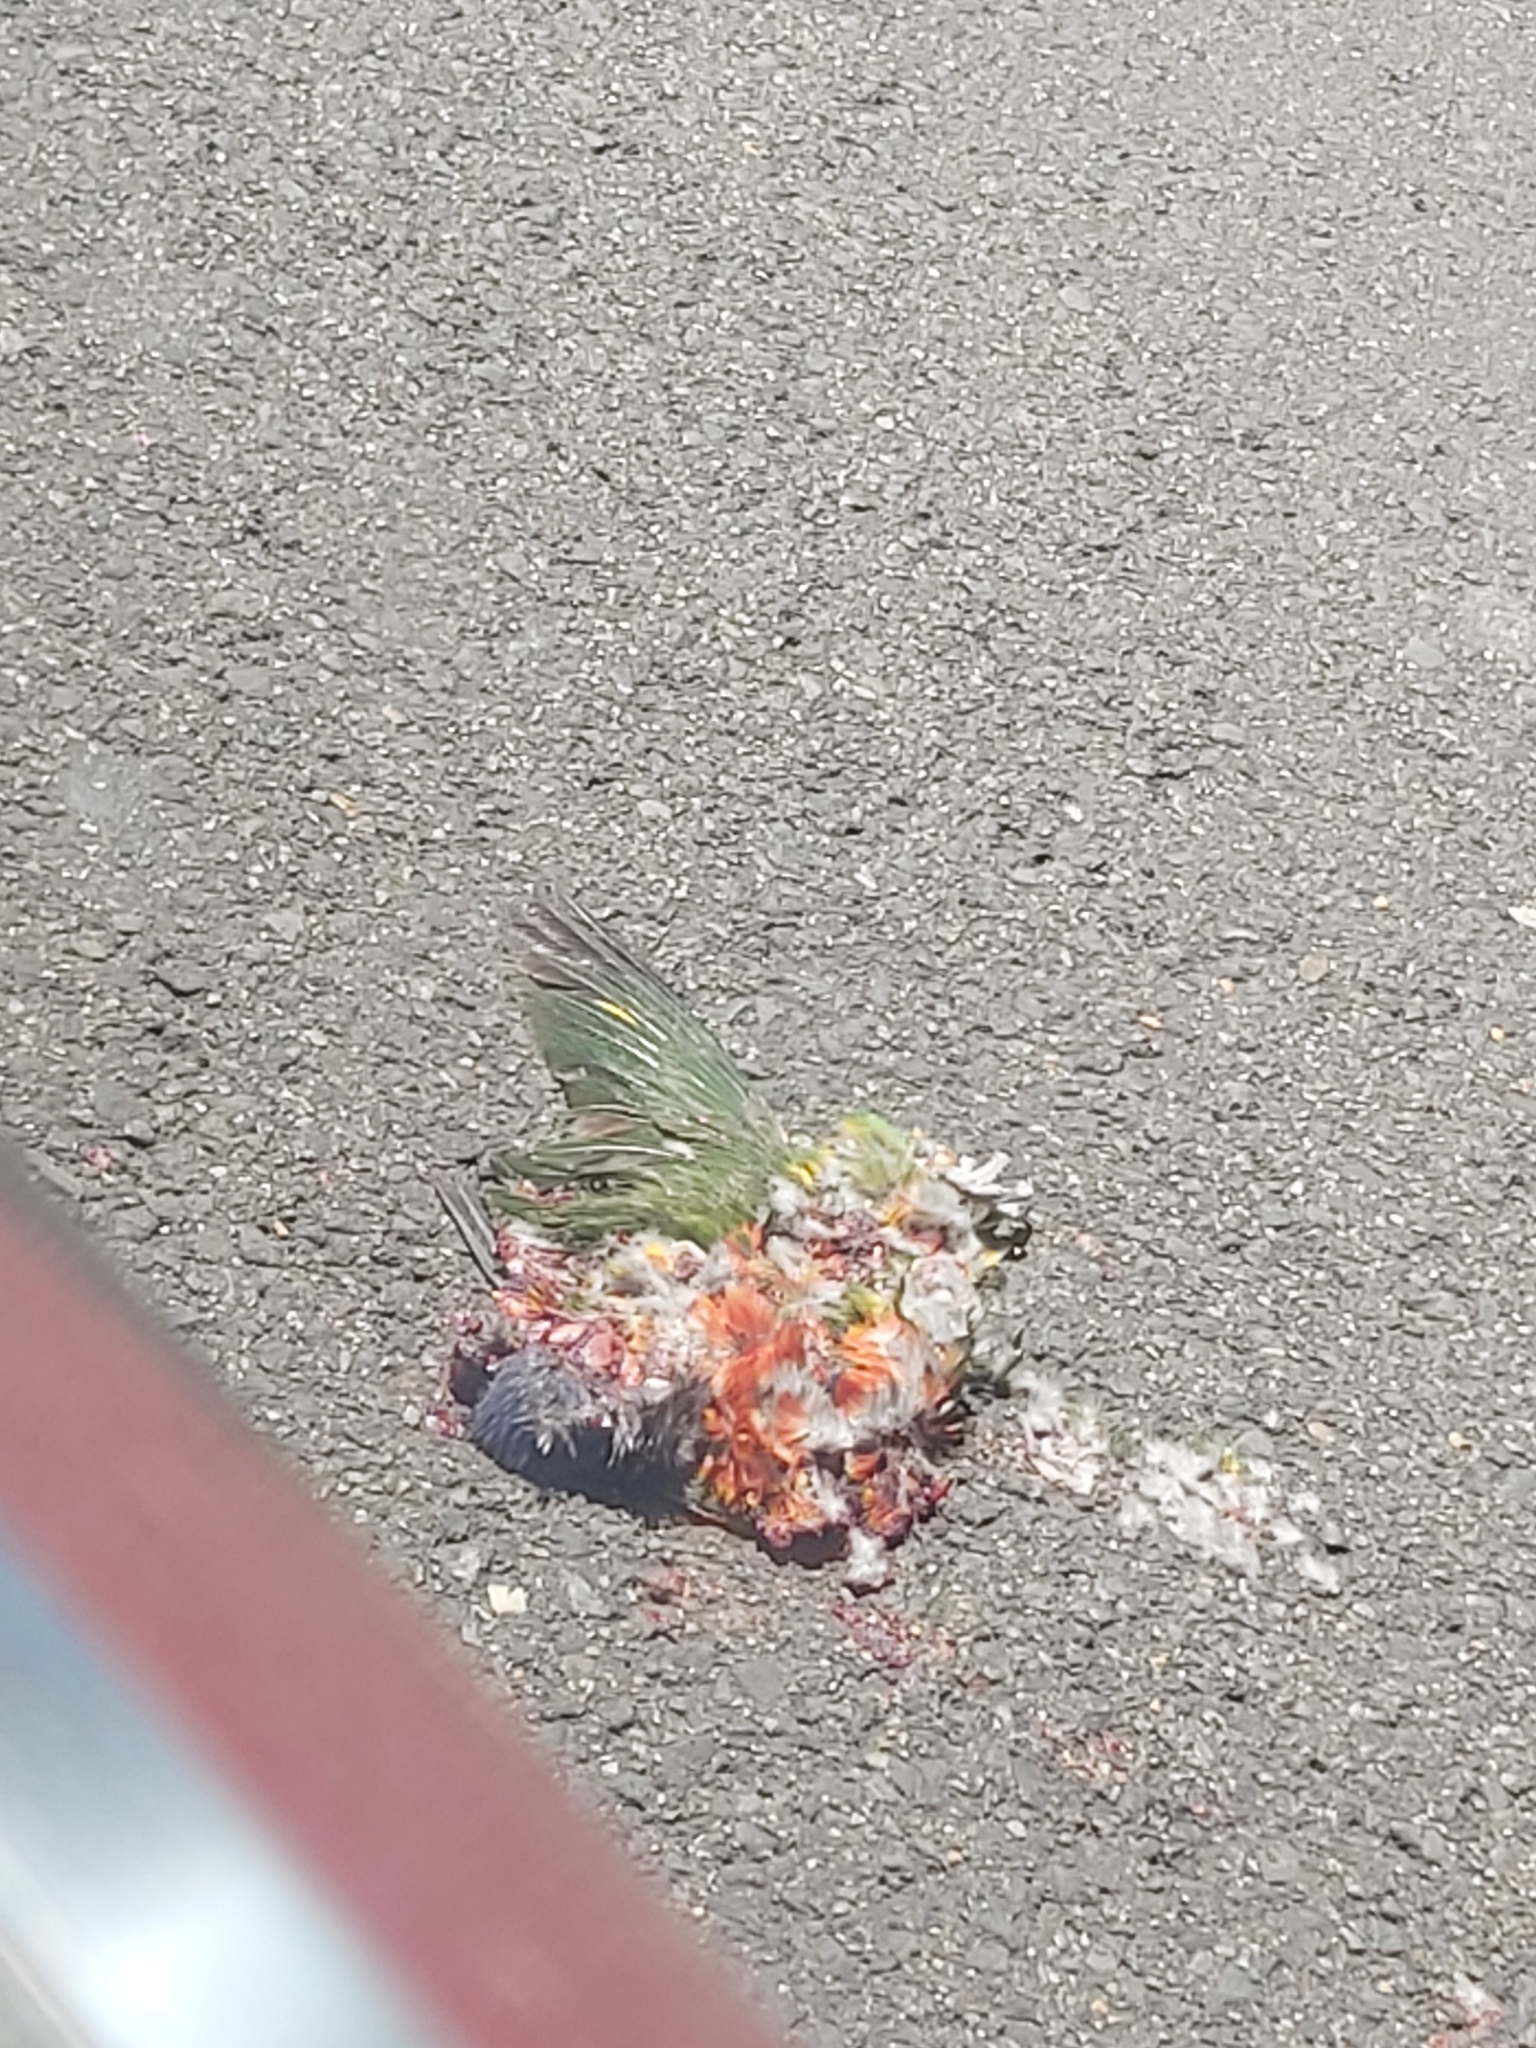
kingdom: Animalia
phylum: Chordata
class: Aves
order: Psittaciformes
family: Psittacidae
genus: Trichoglossus
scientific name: Trichoglossus haematodus
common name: Coconut lorikeet
